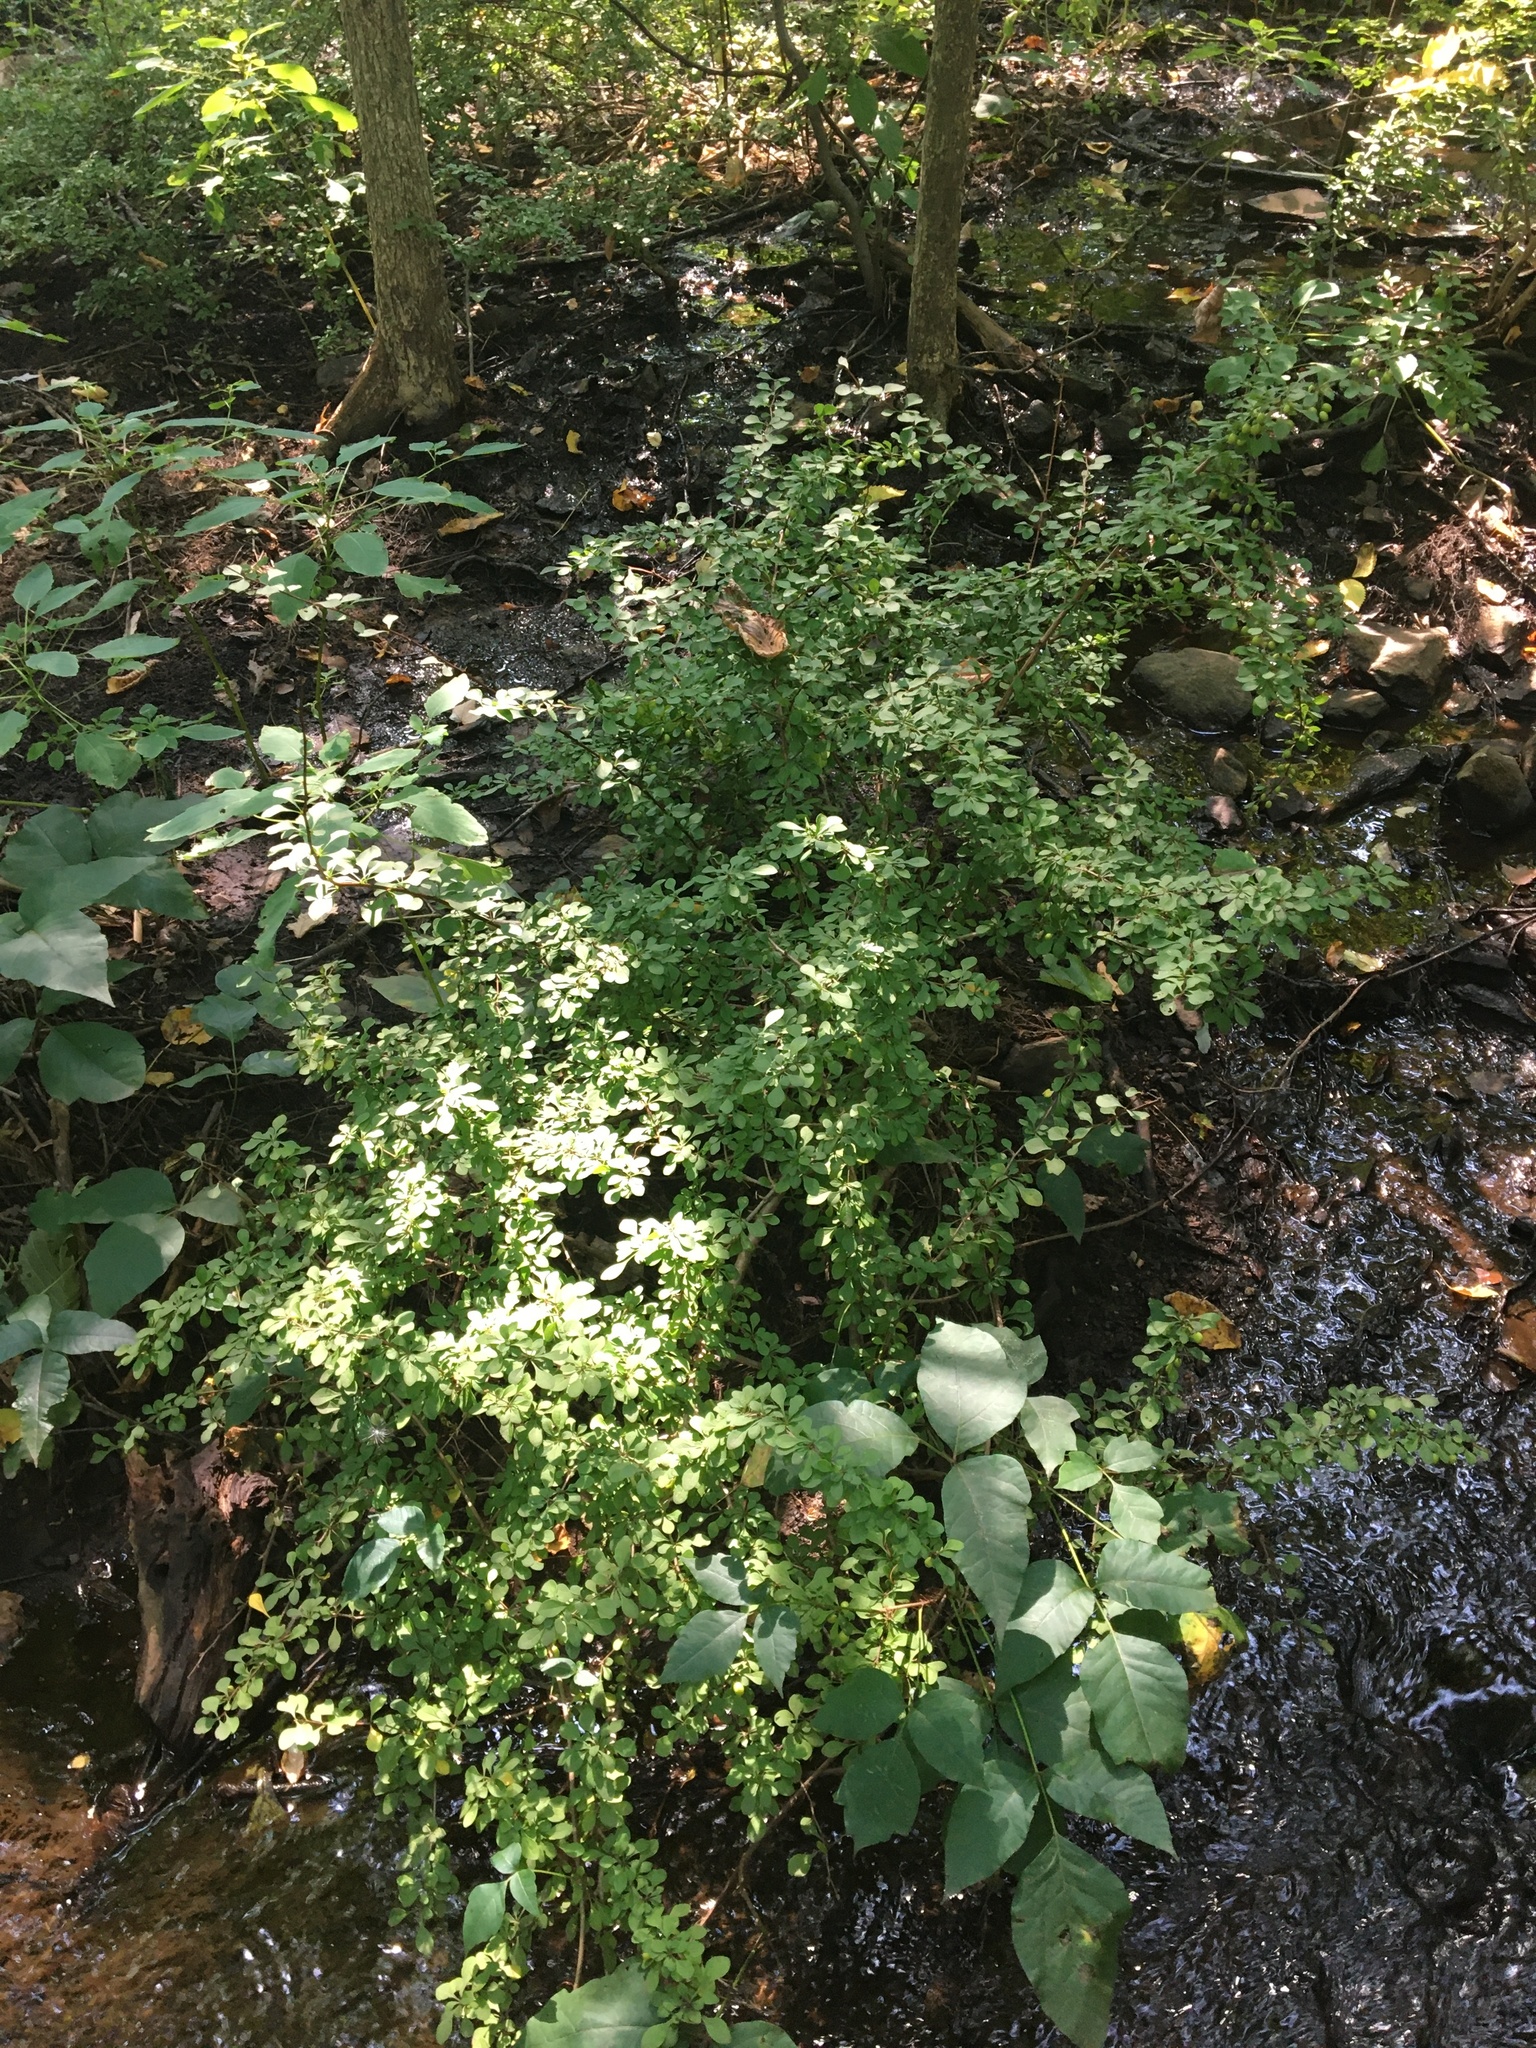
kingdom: Plantae
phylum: Tracheophyta
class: Magnoliopsida
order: Ranunculales
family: Berberidaceae
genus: Berberis
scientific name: Berberis thunbergii
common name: Japanese barberry
